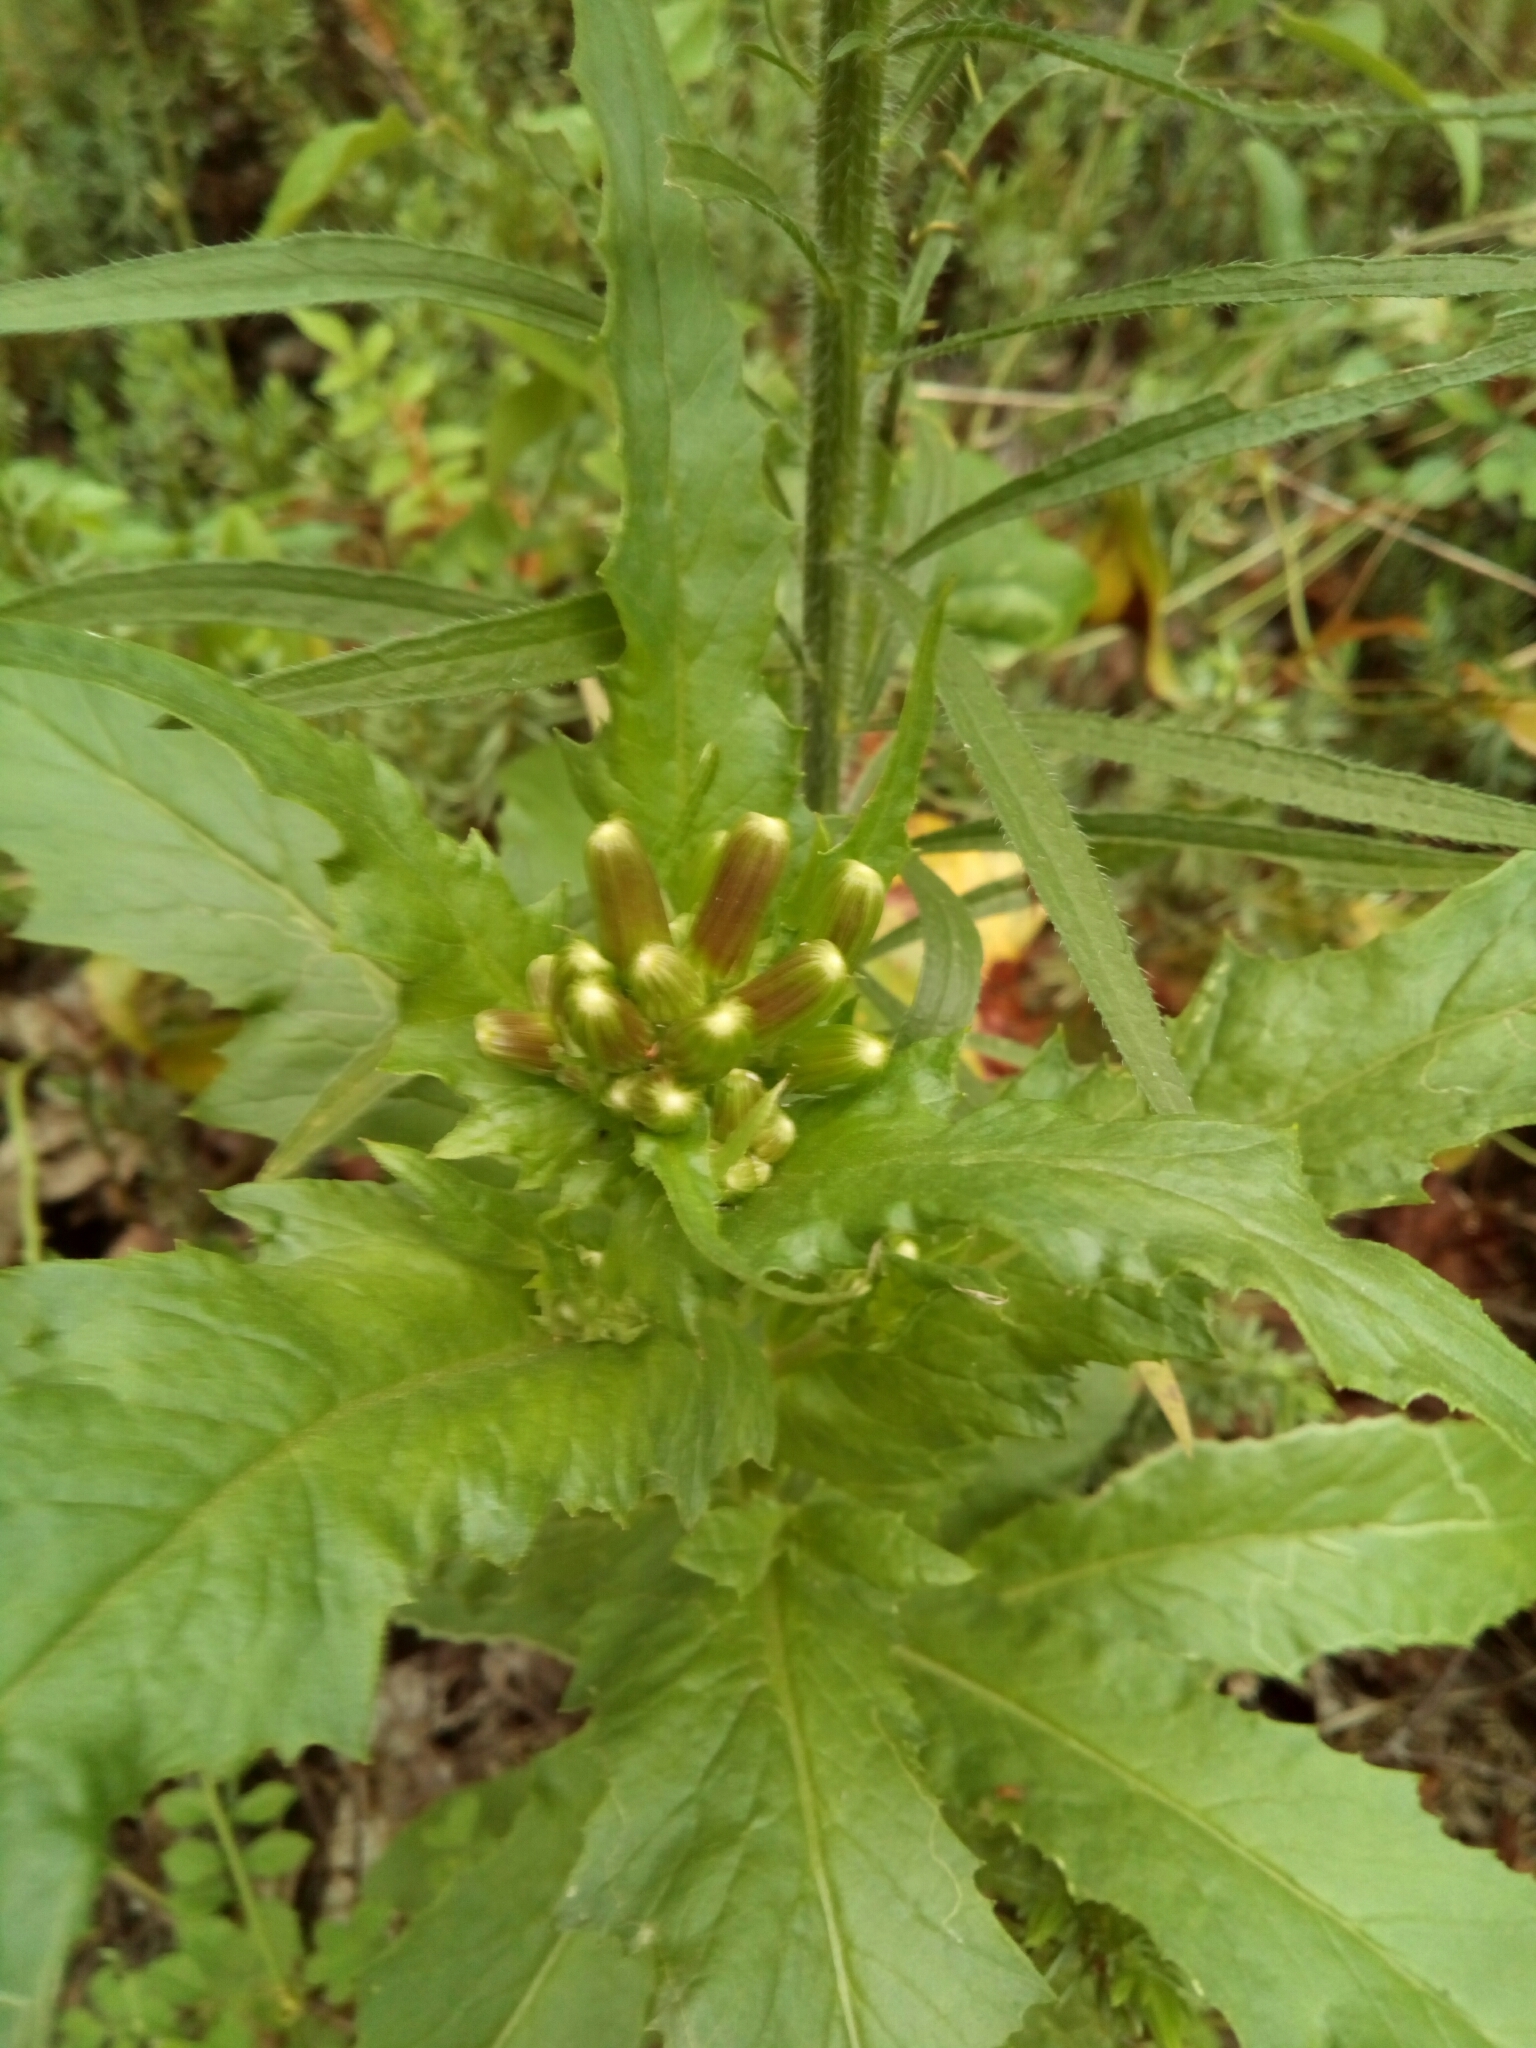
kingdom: Plantae
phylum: Tracheophyta
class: Magnoliopsida
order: Asterales
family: Asteraceae
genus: Erechtites
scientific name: Erechtites hieraciifolius
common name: American burnweed
